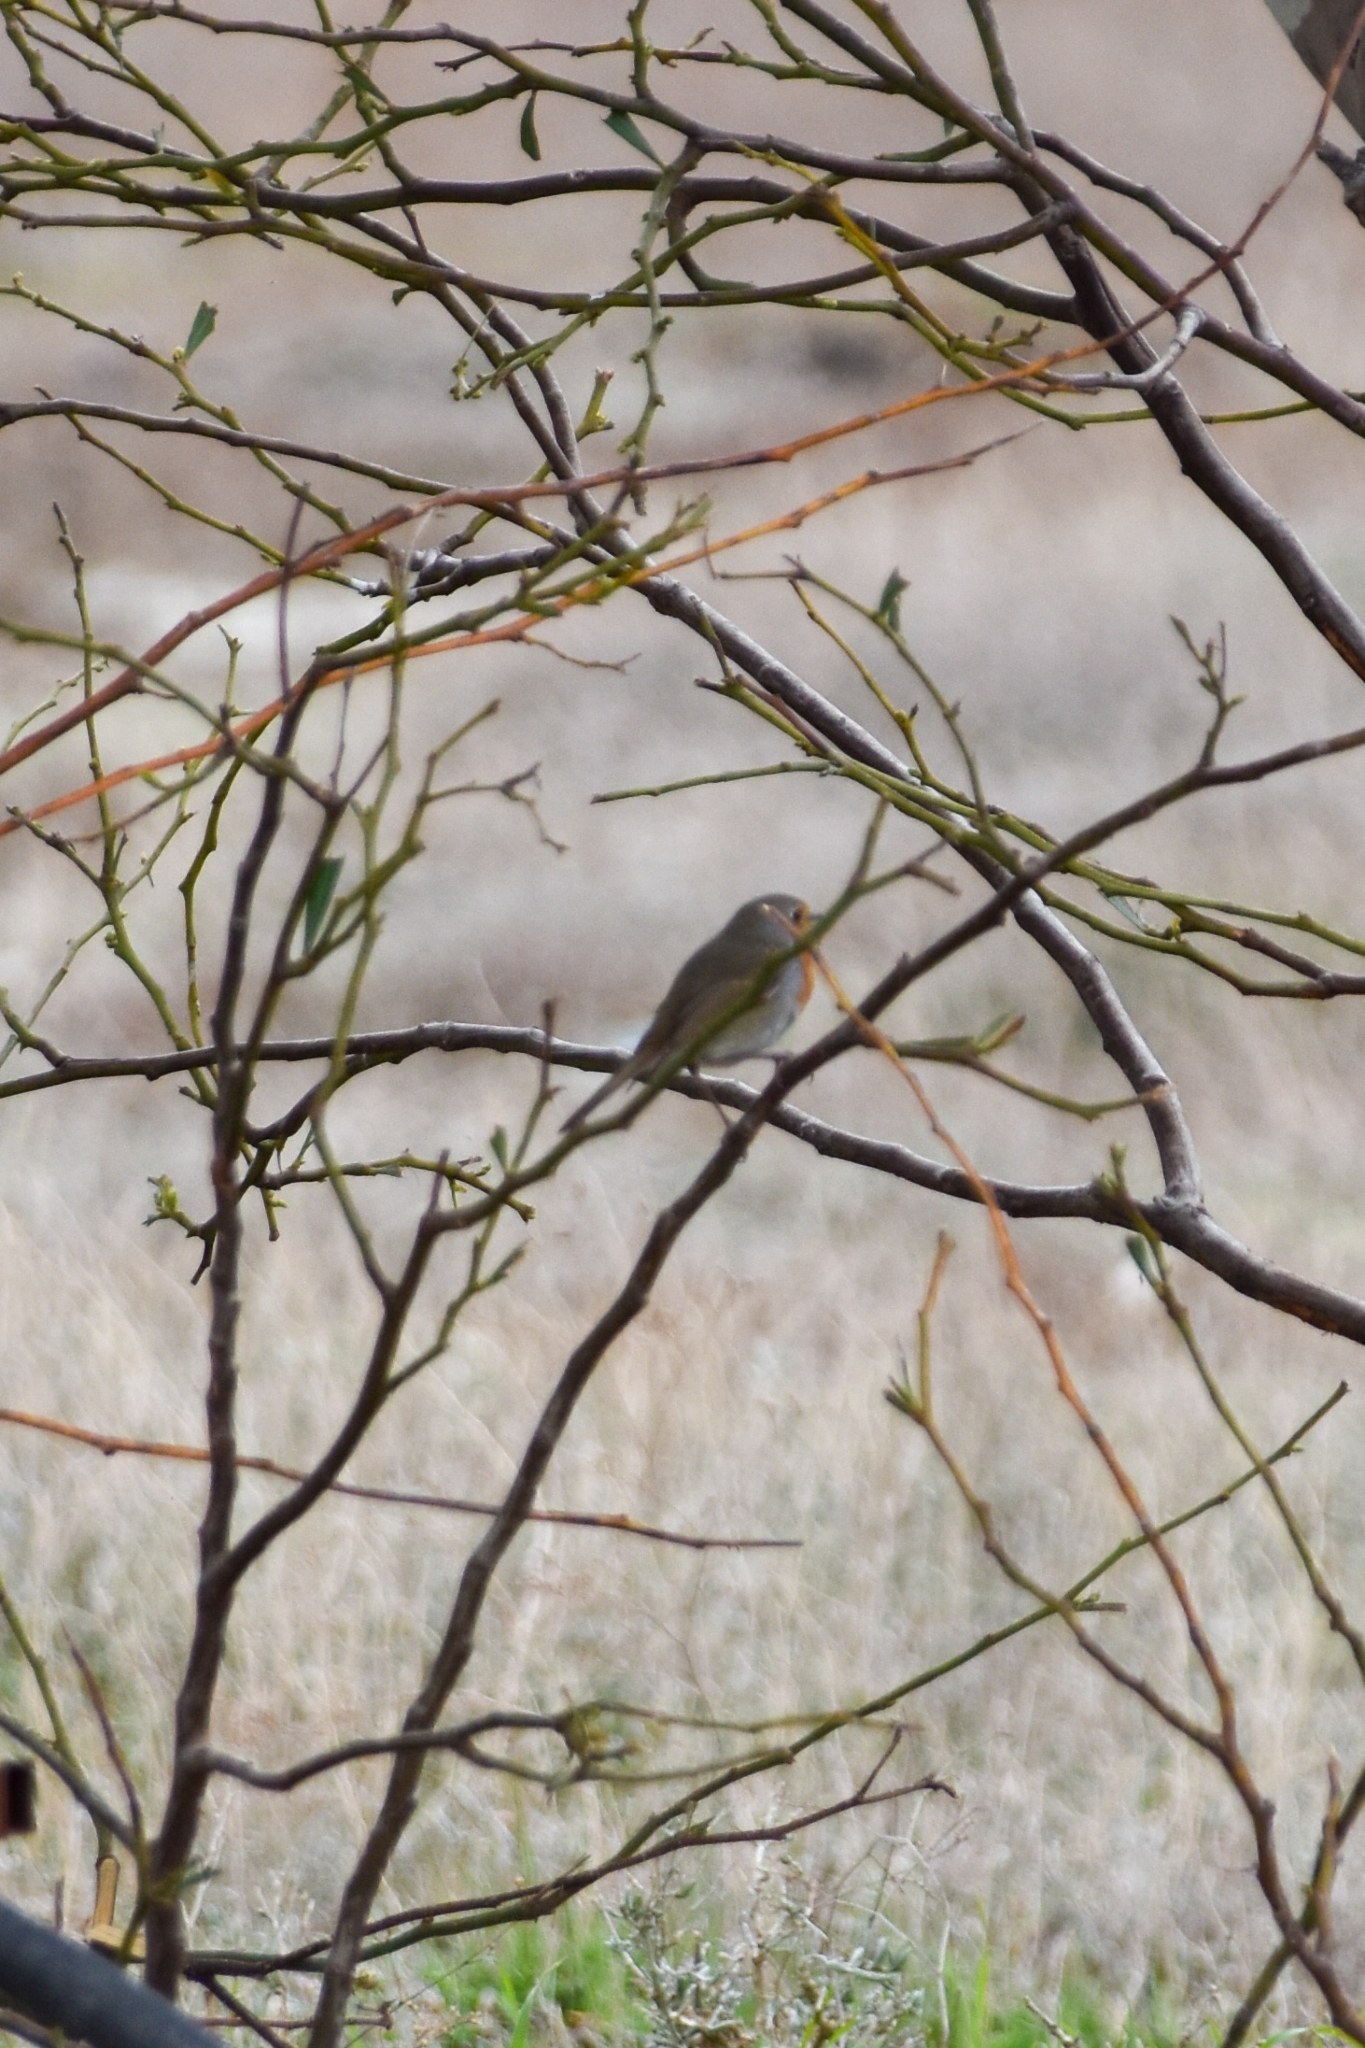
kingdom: Animalia
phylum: Chordata
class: Aves
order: Passeriformes
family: Muscicapidae
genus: Erithacus
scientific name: Erithacus rubecula
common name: European robin
